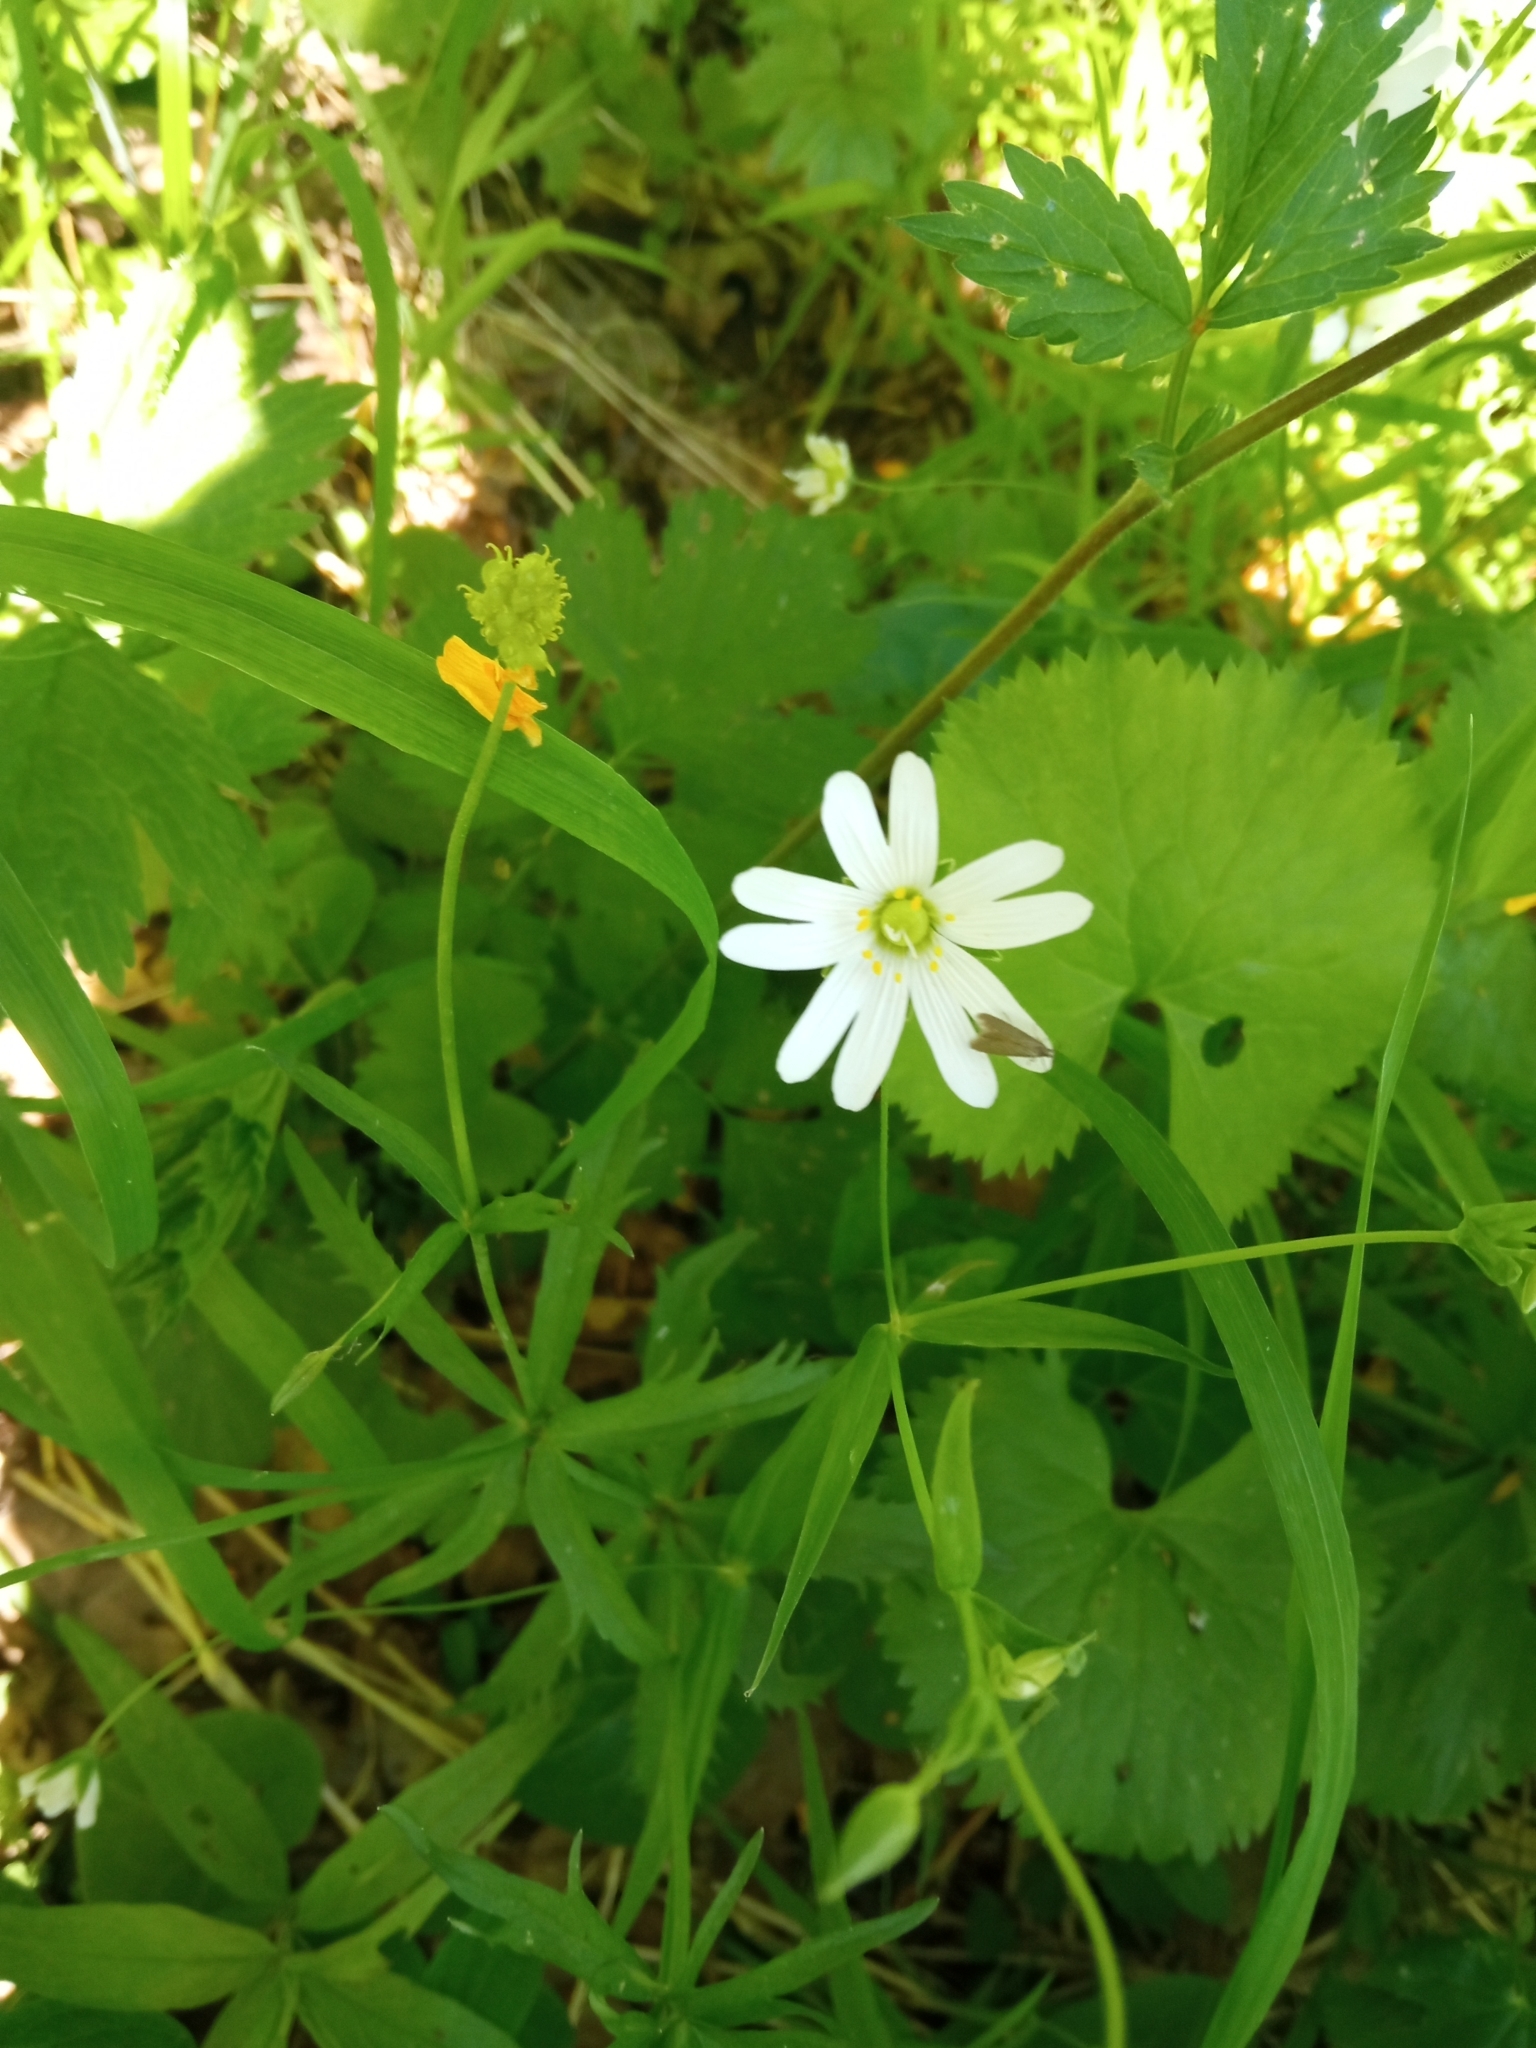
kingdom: Plantae
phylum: Tracheophyta
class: Magnoliopsida
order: Caryophyllales
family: Caryophyllaceae
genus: Rabelera
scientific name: Rabelera holostea
